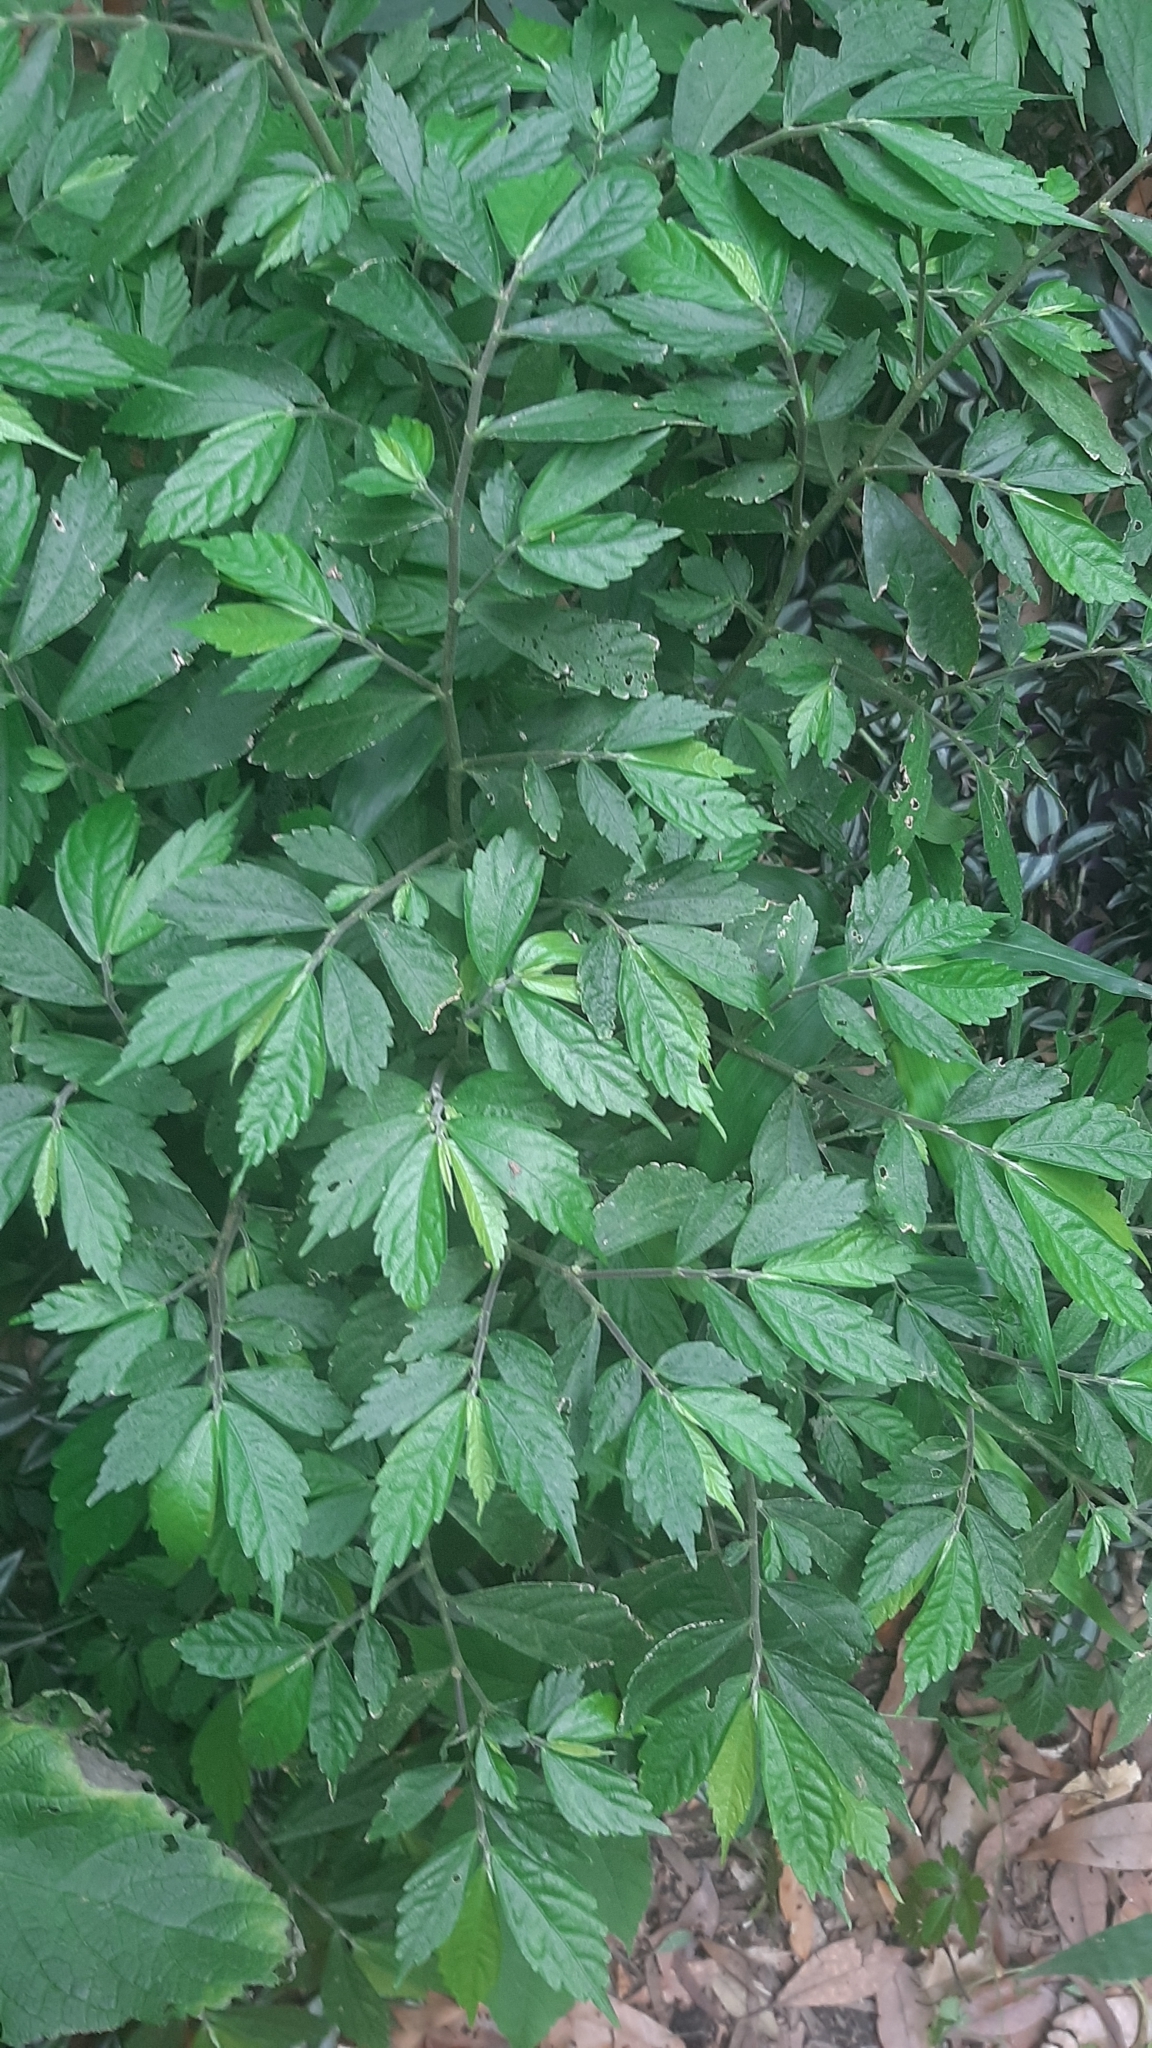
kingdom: Plantae
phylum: Tracheophyta
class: Magnoliopsida
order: Rosales
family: Urticaceae
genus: Elatostema
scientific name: Elatostema lineolatum
